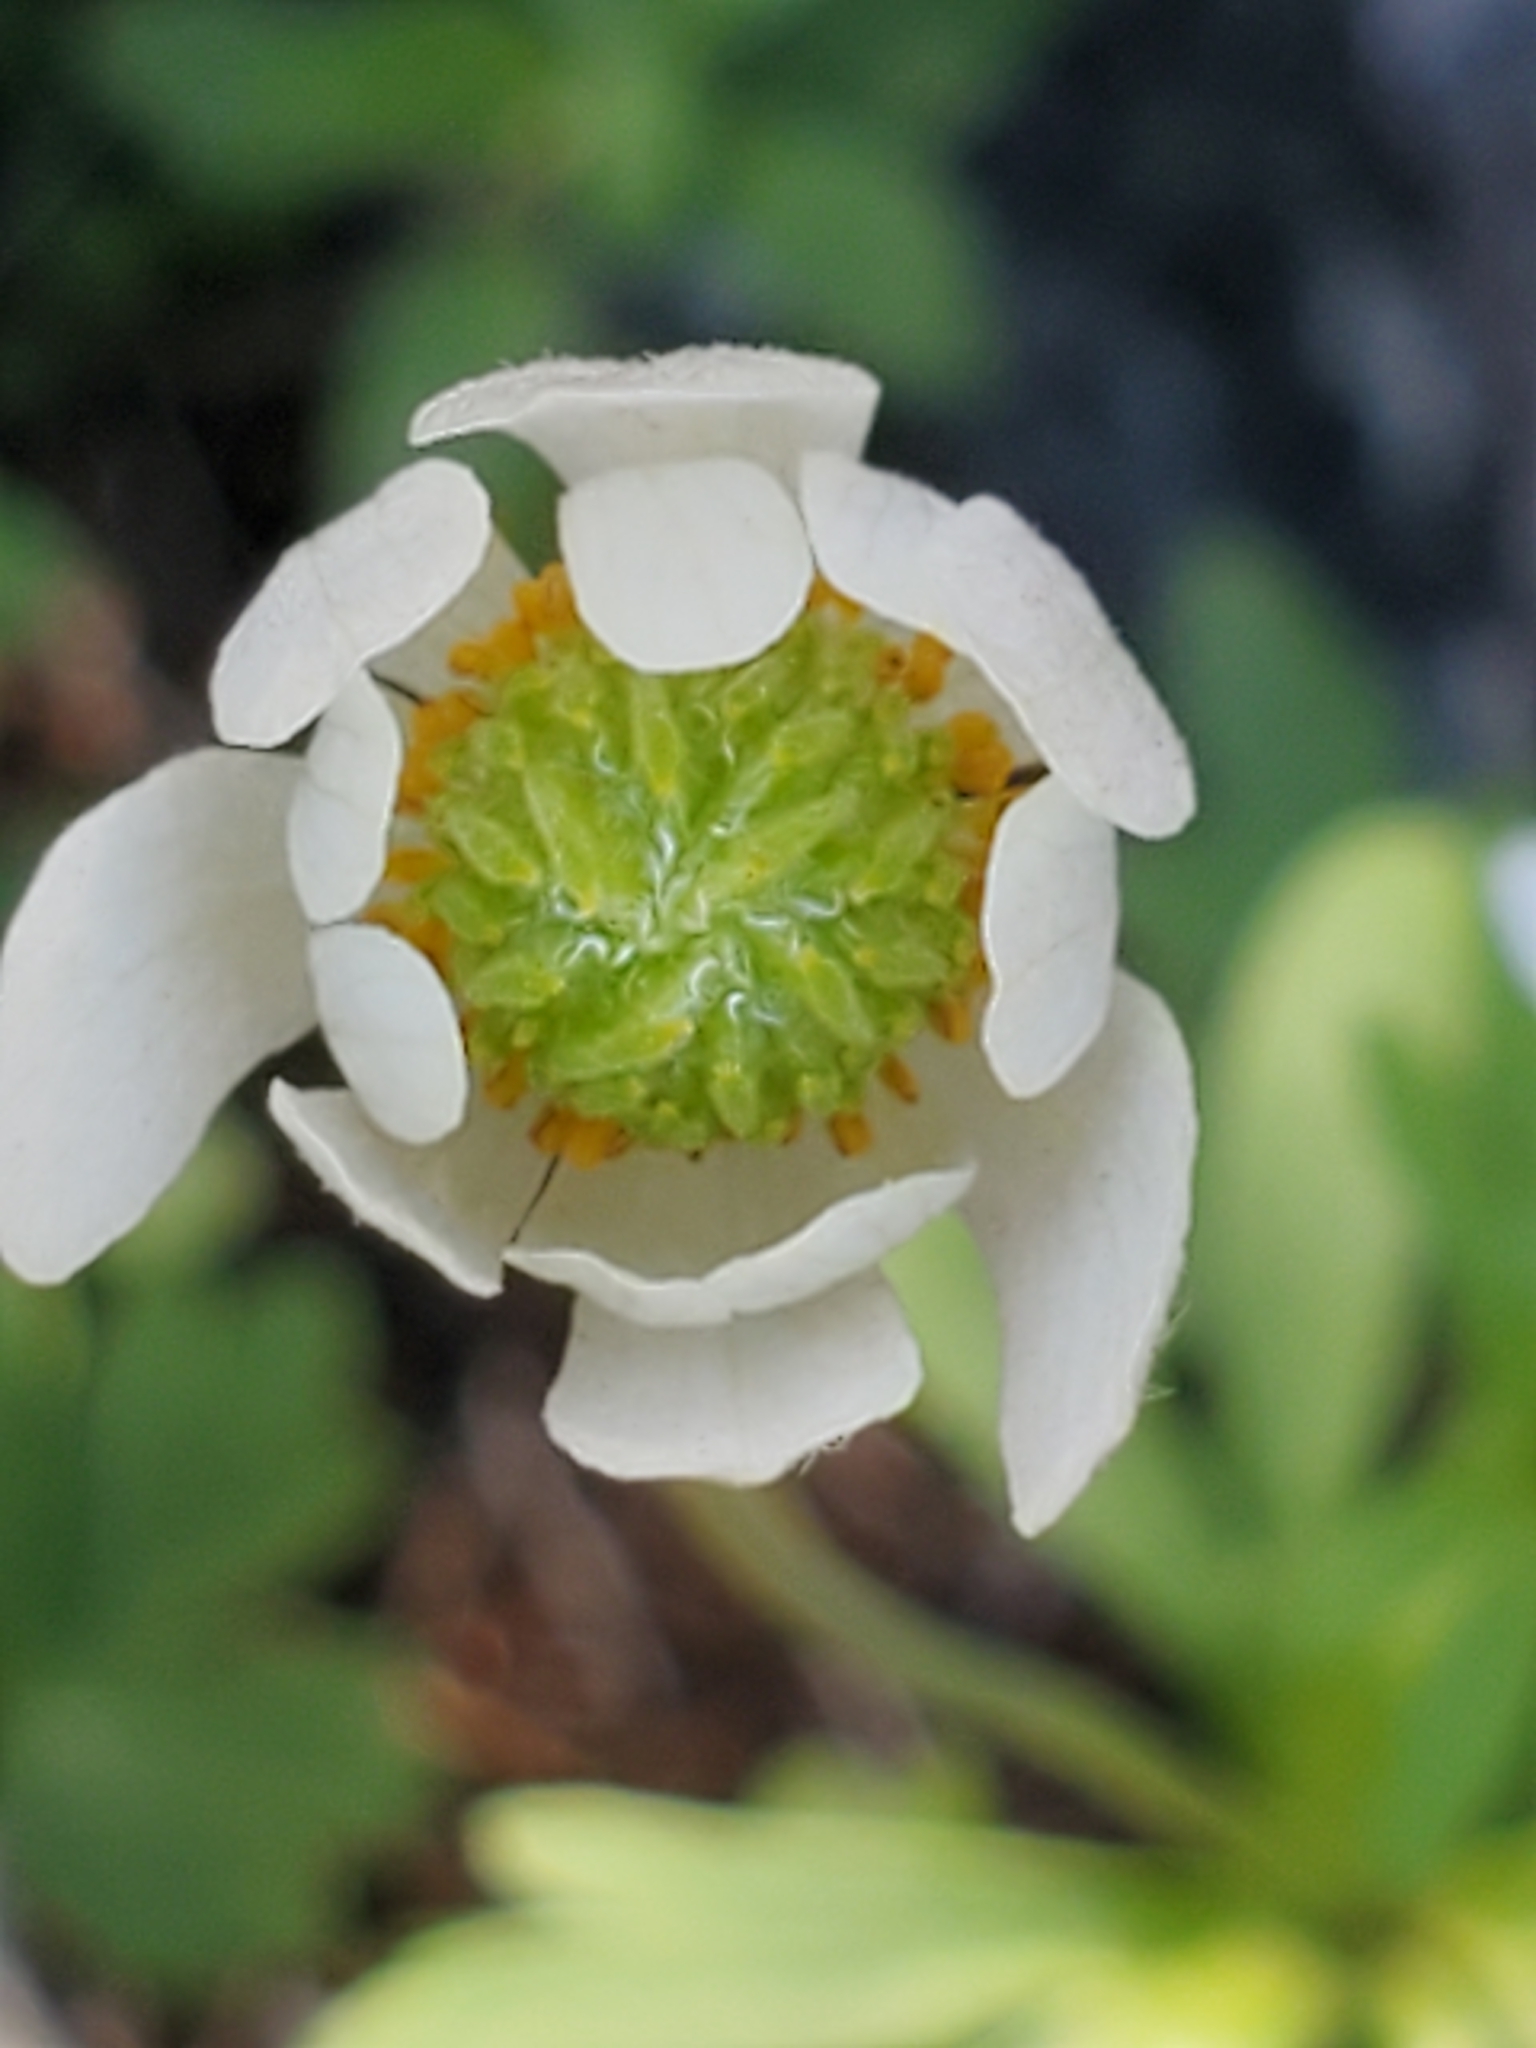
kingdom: Plantae
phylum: Tracheophyta
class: Magnoliopsida
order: Ranunculales
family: Ranunculaceae
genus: Anemone
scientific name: Anemone edwardsiana
